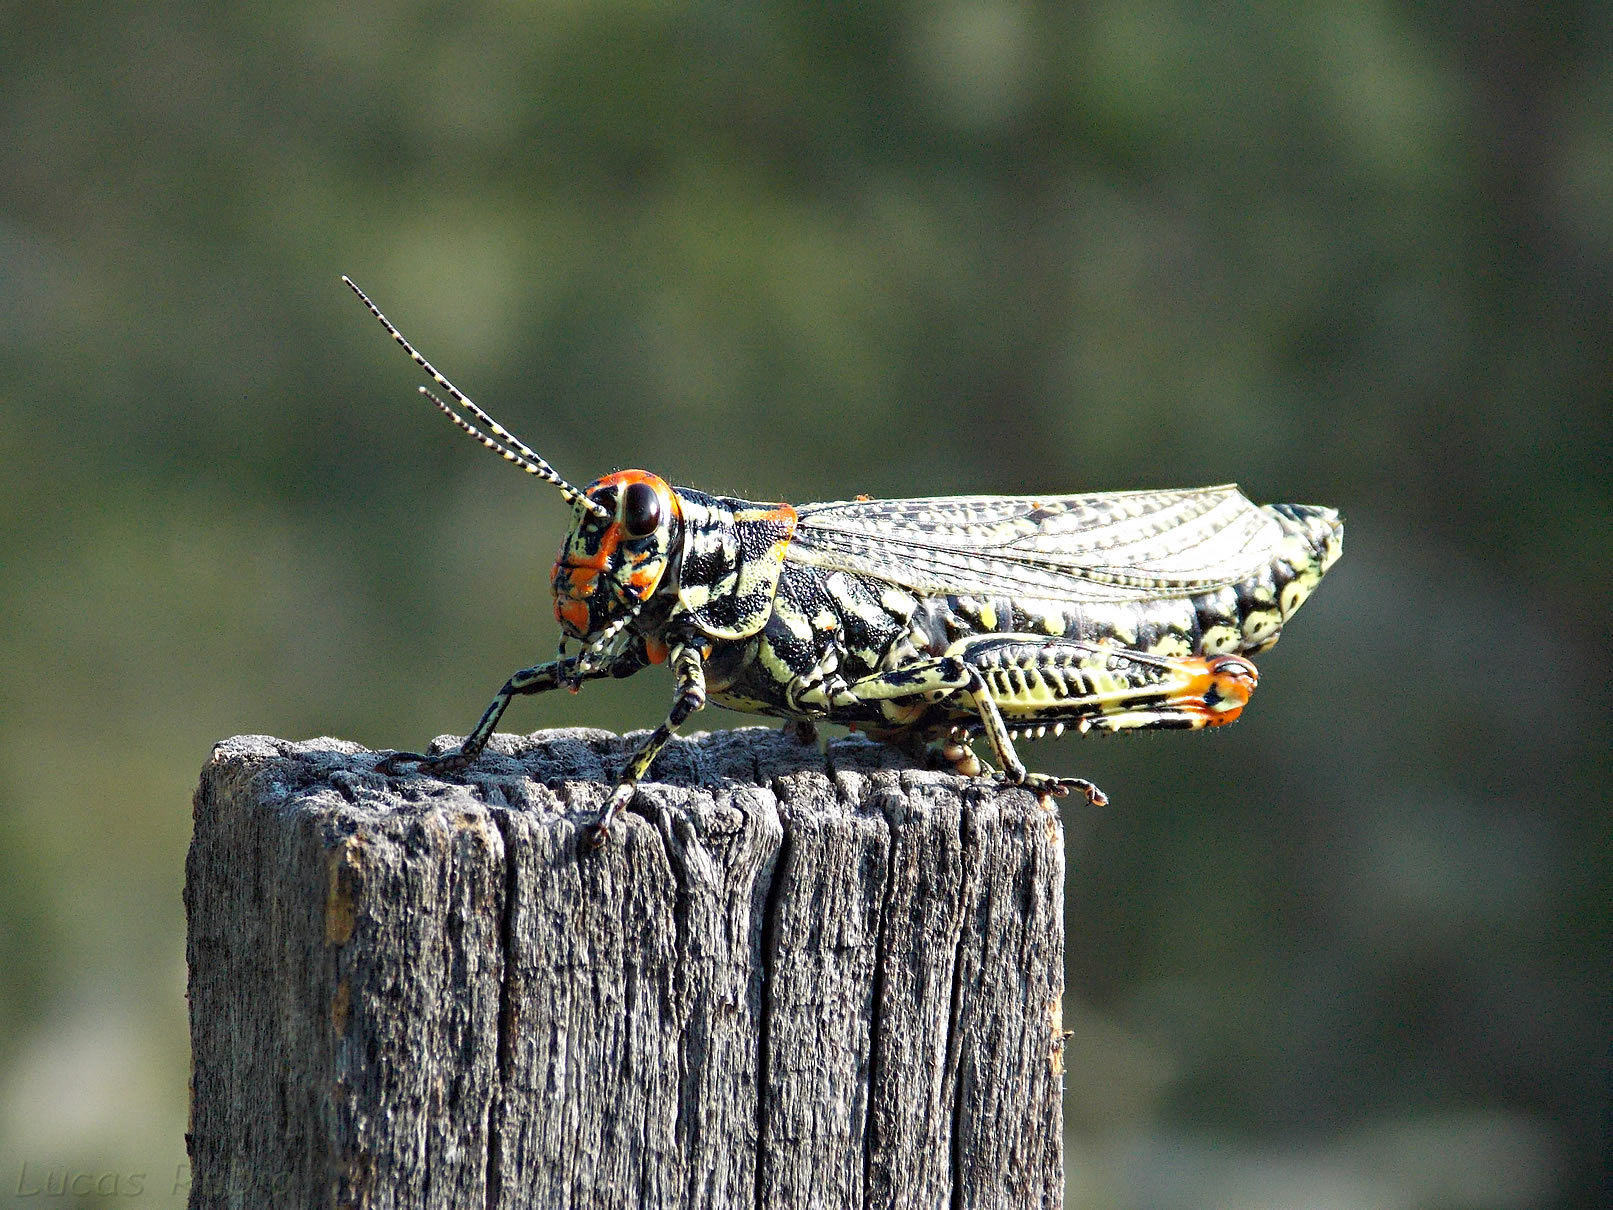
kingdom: Animalia
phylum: Arthropoda
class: Insecta
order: Orthoptera
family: Romaleidae
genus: Diponthus
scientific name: Diponthus puelchus
